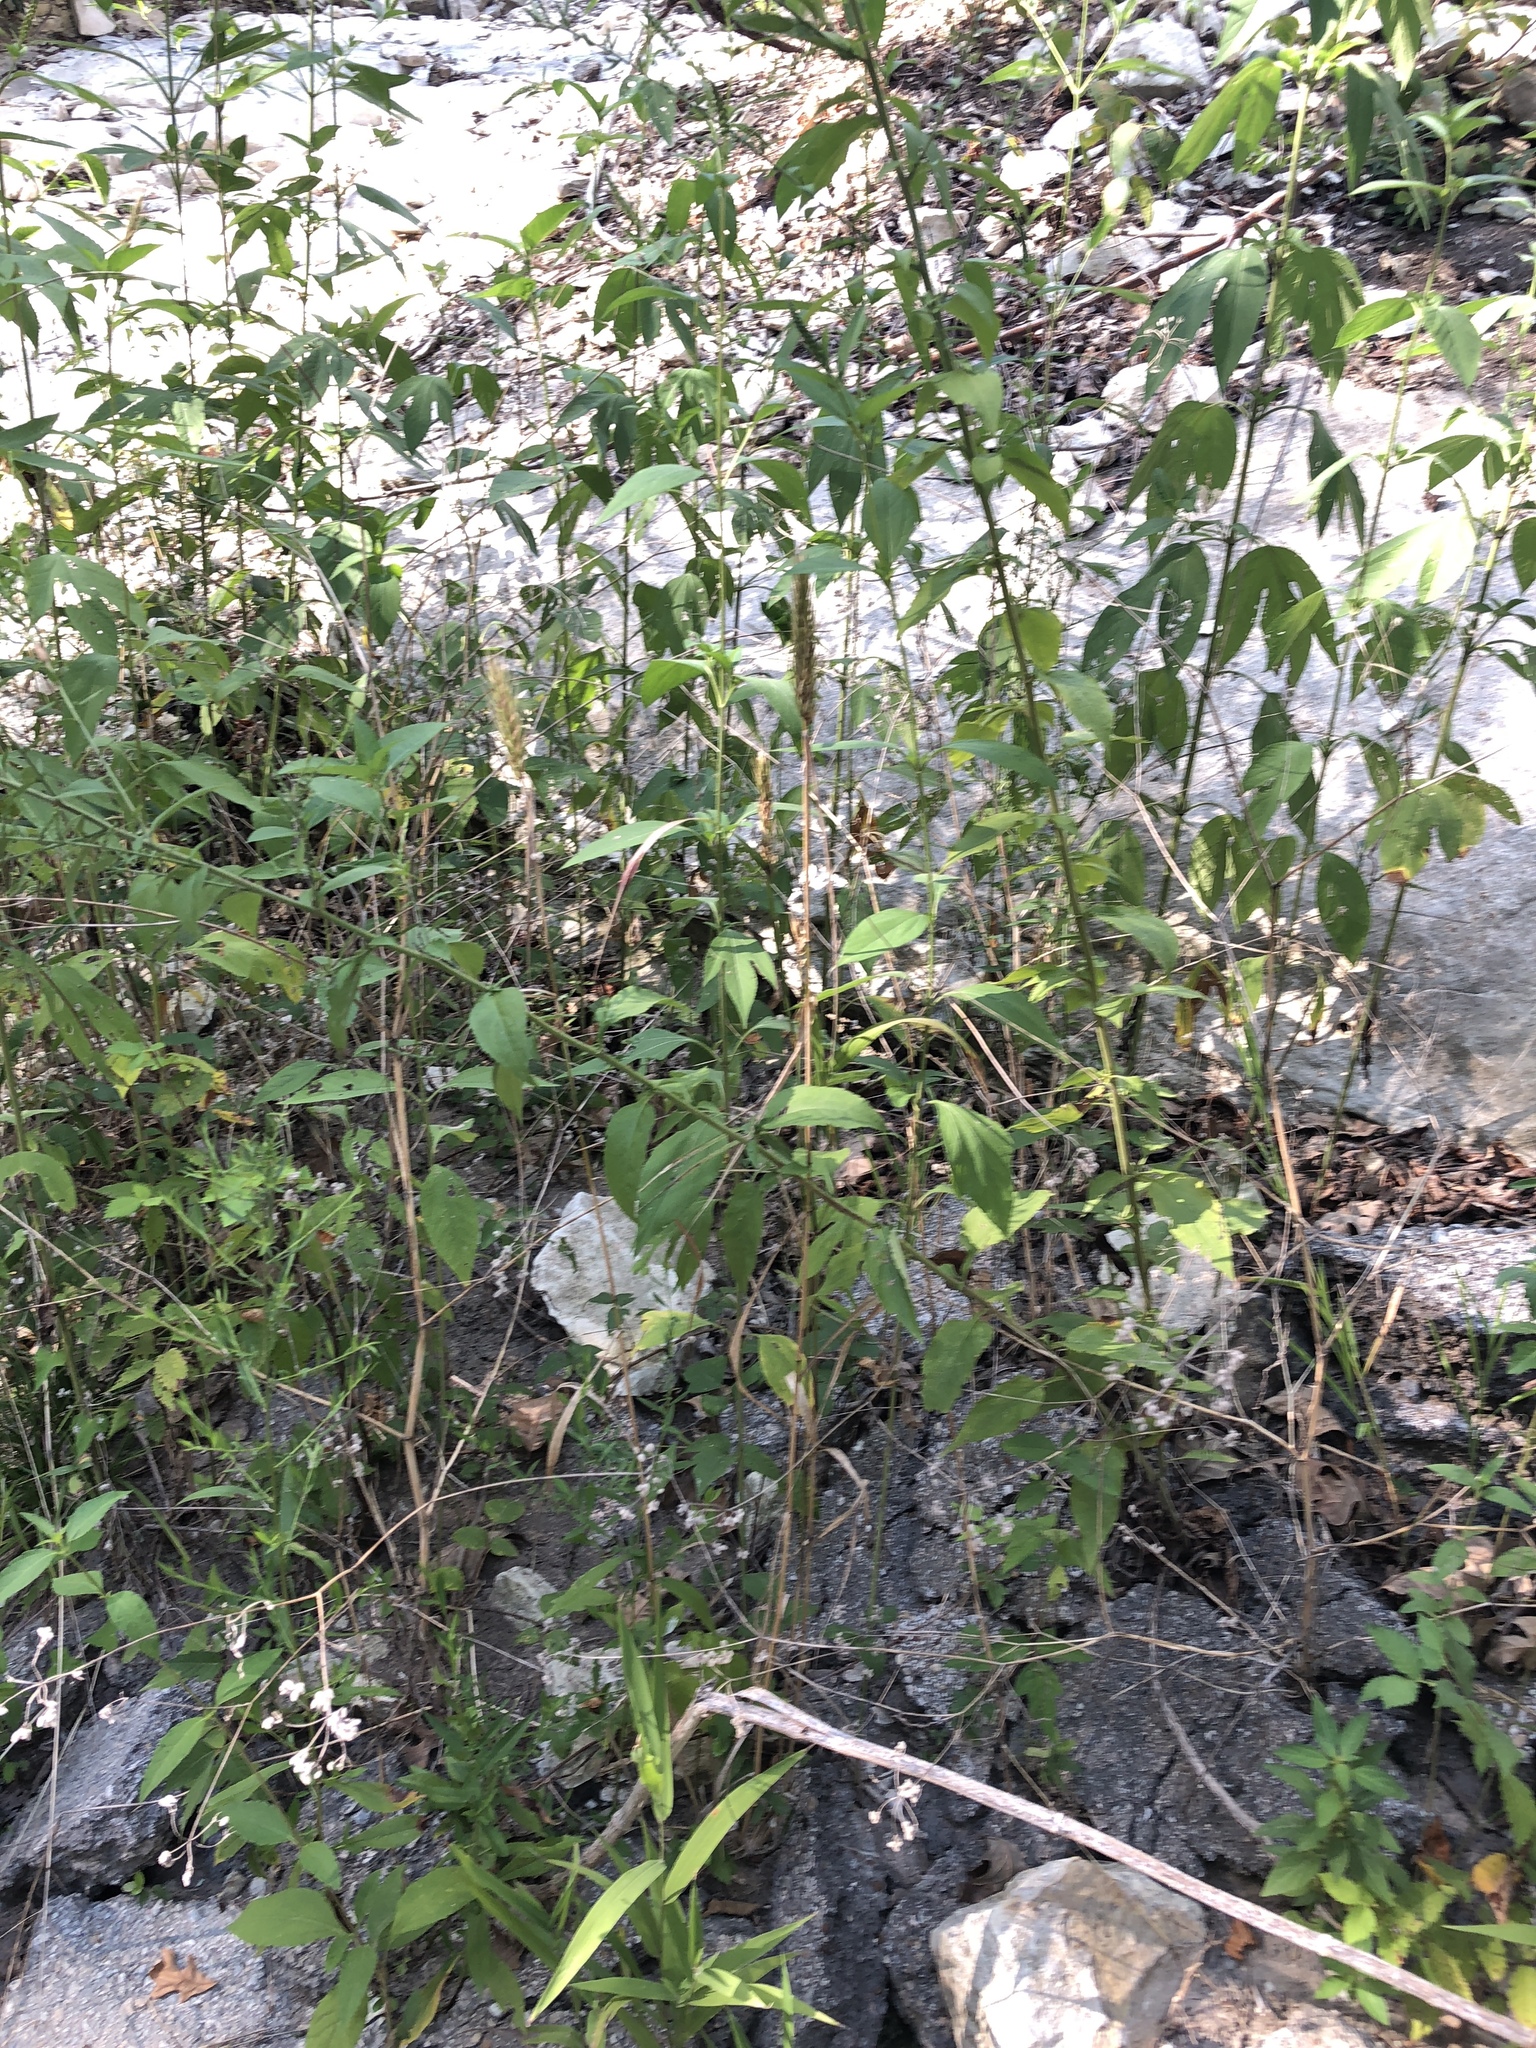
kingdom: Plantae
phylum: Tracheophyta
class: Liliopsida
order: Poales
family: Poaceae
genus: Elymus
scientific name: Elymus virginicus
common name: Common eastern wildrye
